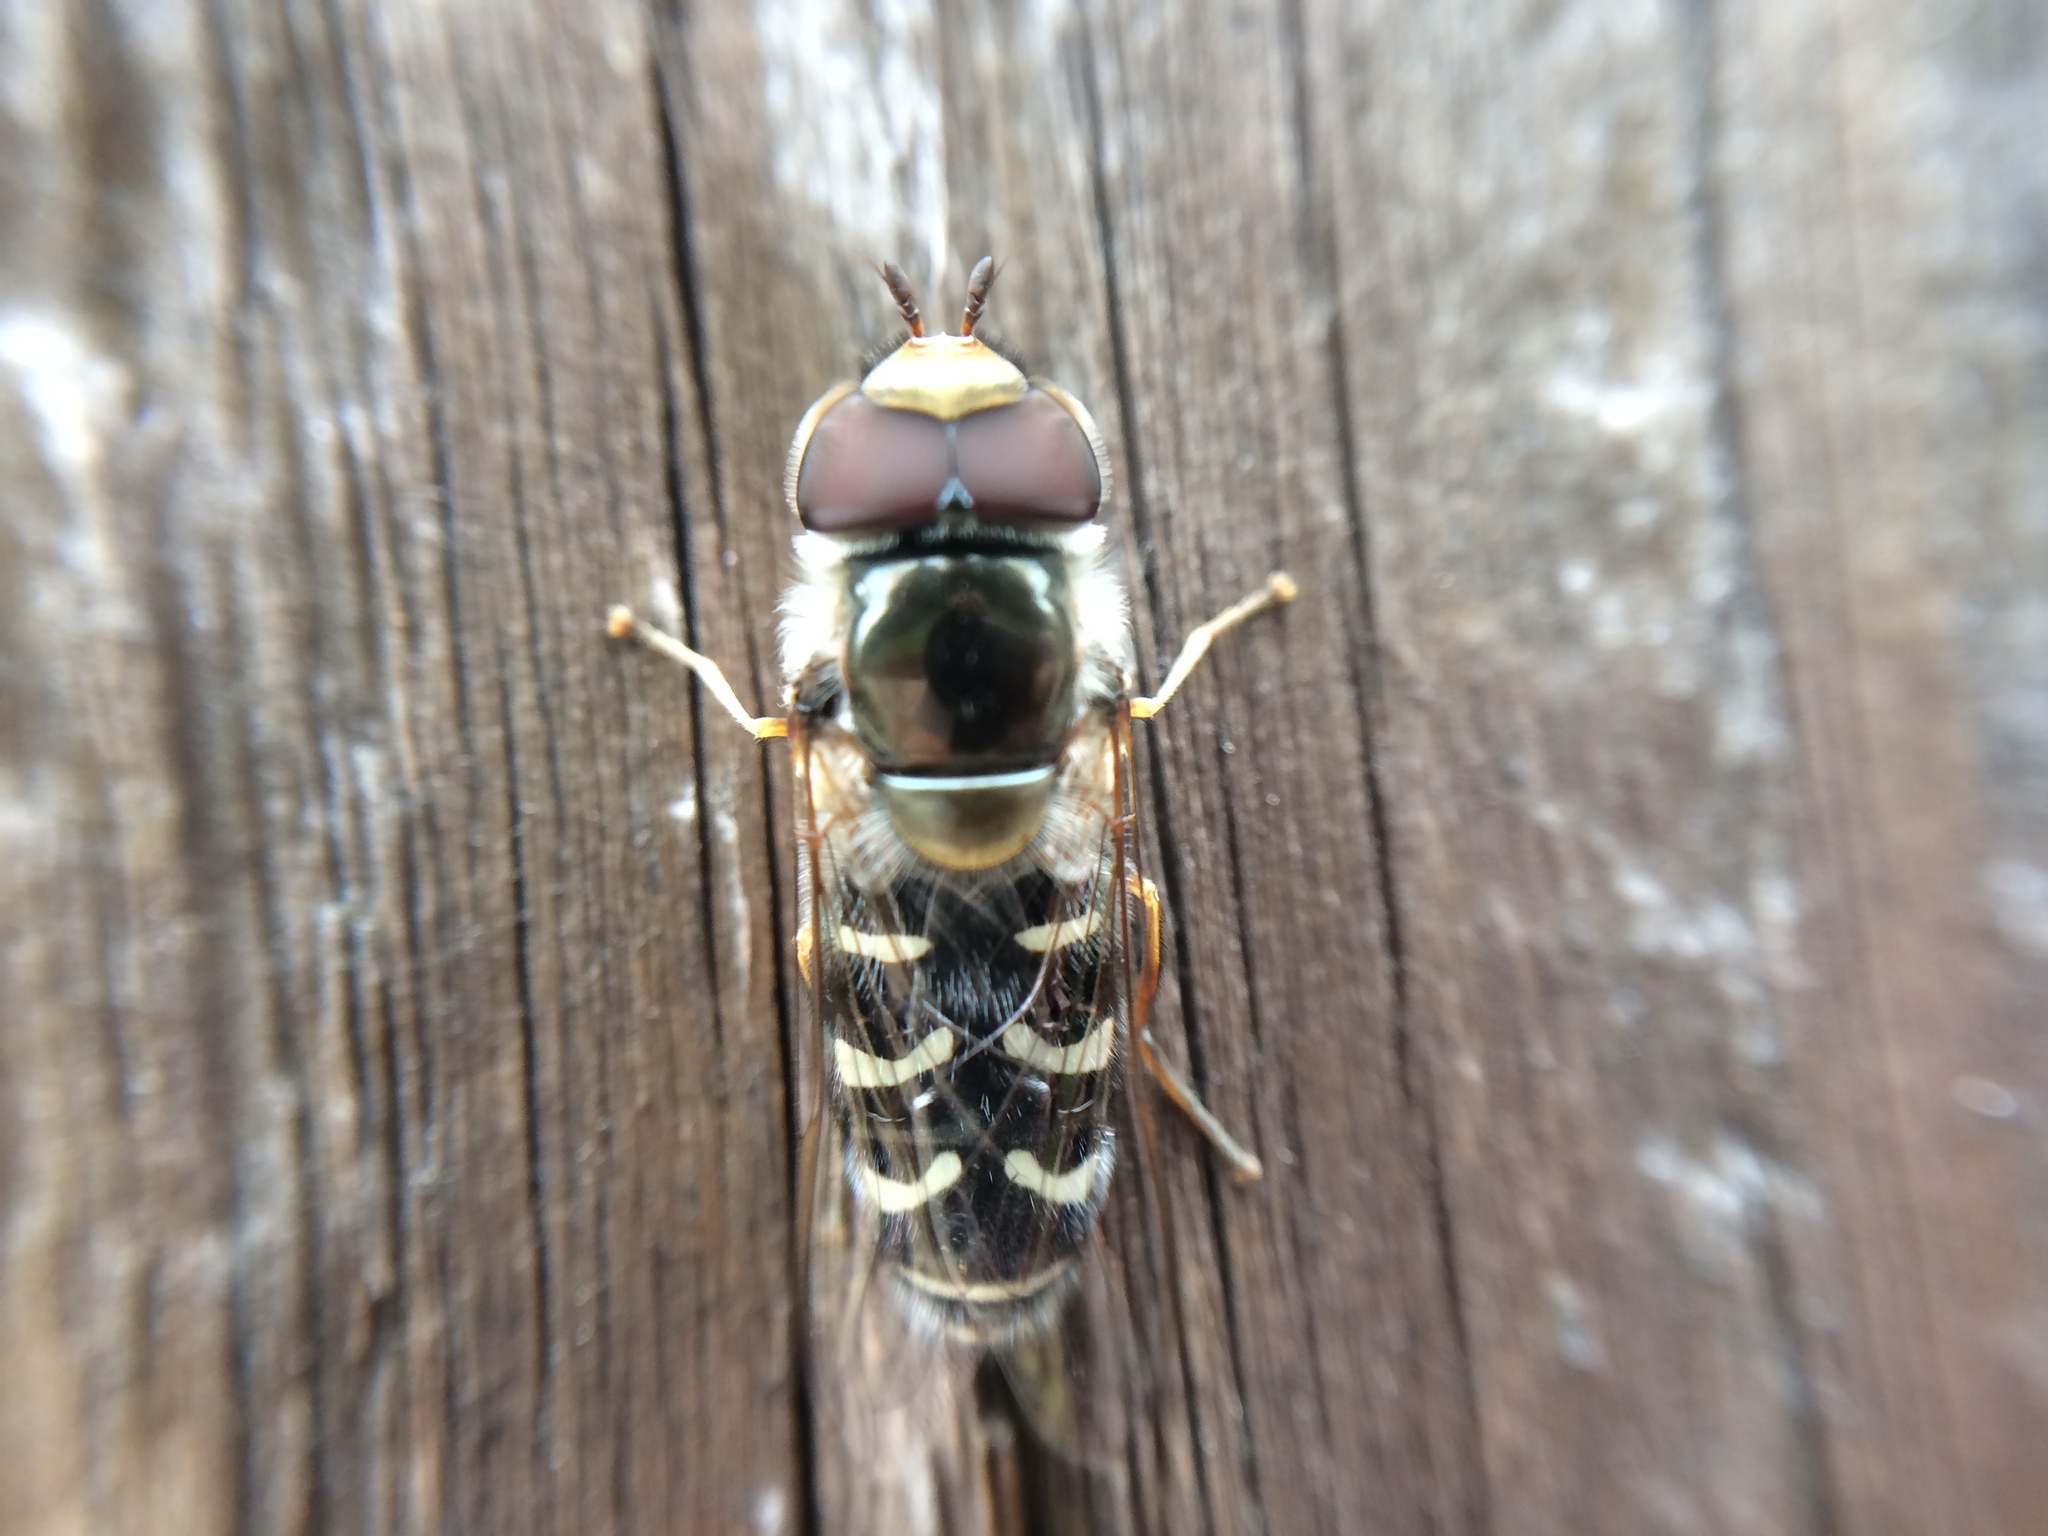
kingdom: Animalia
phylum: Arthropoda
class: Insecta
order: Diptera
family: Syrphidae
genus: Scaeva
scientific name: Scaeva affinis
